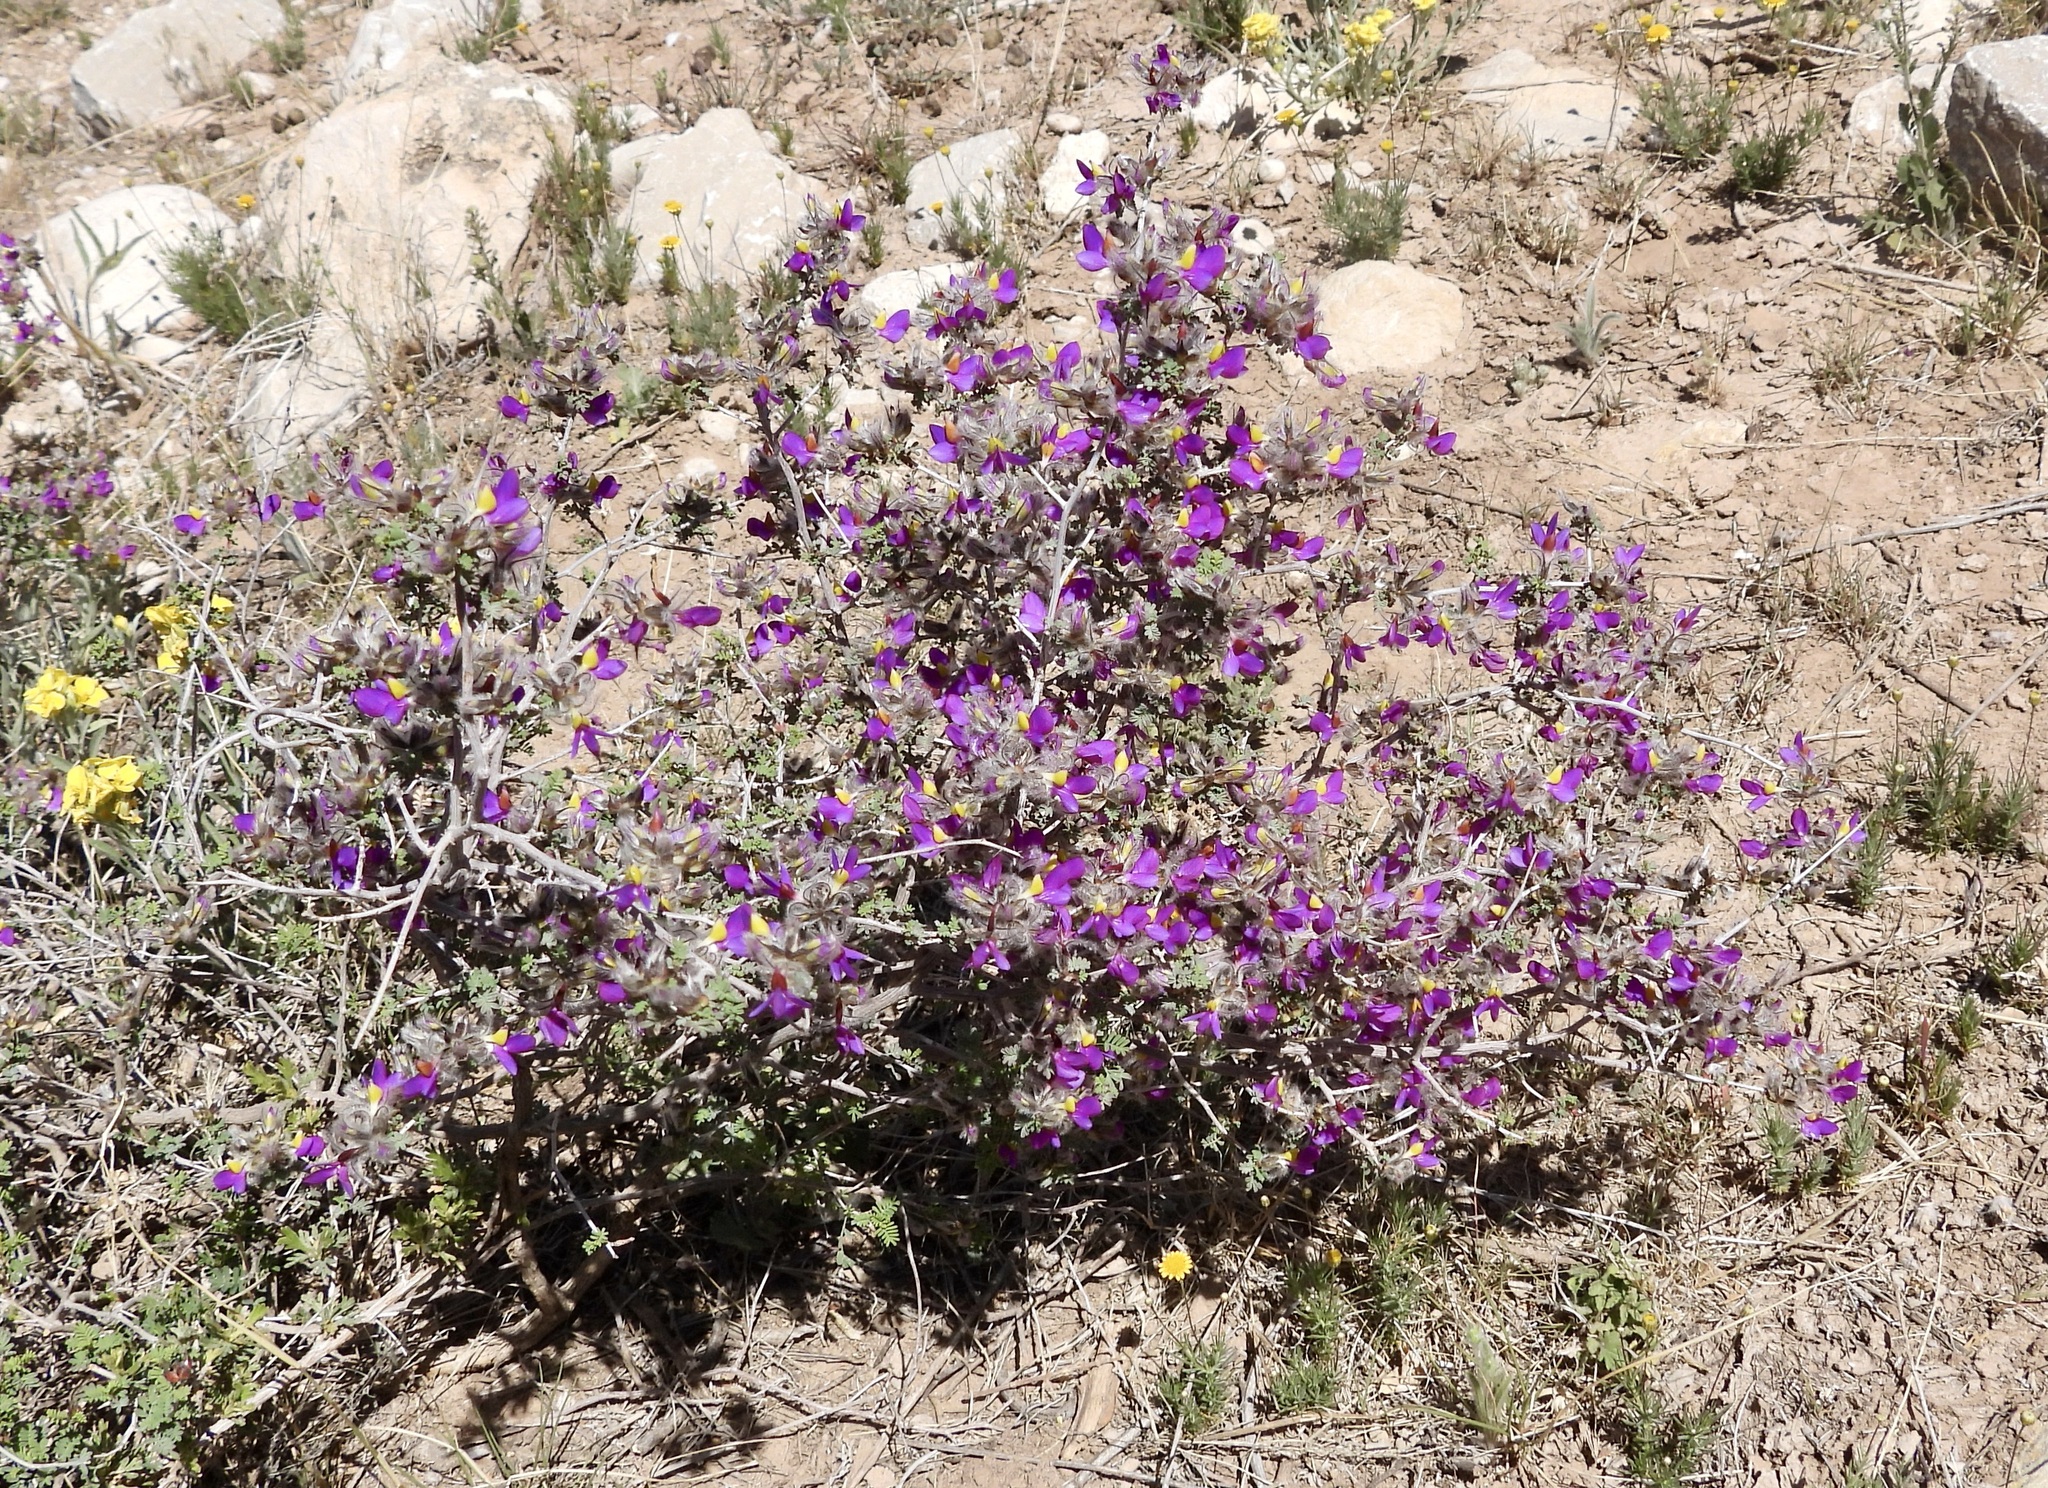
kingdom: Plantae
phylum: Tracheophyta
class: Magnoliopsida
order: Fabales
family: Fabaceae
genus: Dalea
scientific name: Dalea formosa
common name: Feather-plume dalea
